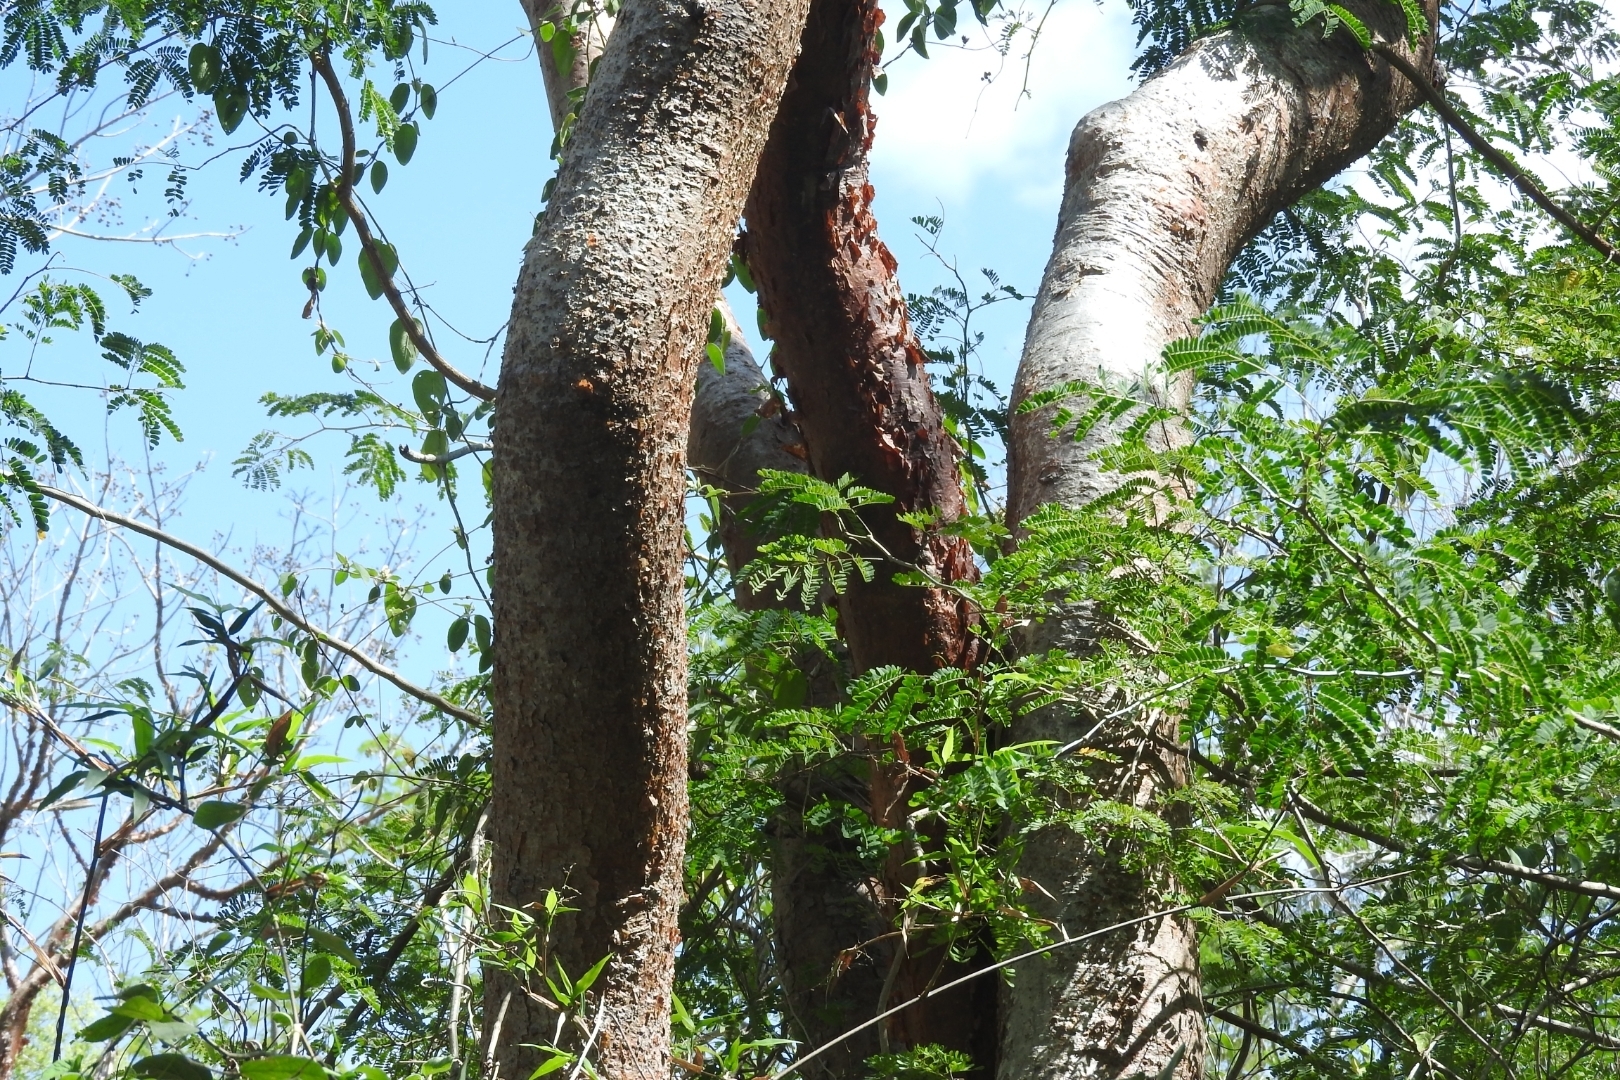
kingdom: Plantae
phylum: Tracheophyta
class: Magnoliopsida
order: Sapindales
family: Burseraceae
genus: Bursera
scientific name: Bursera simaruba
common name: Turpentine tree
